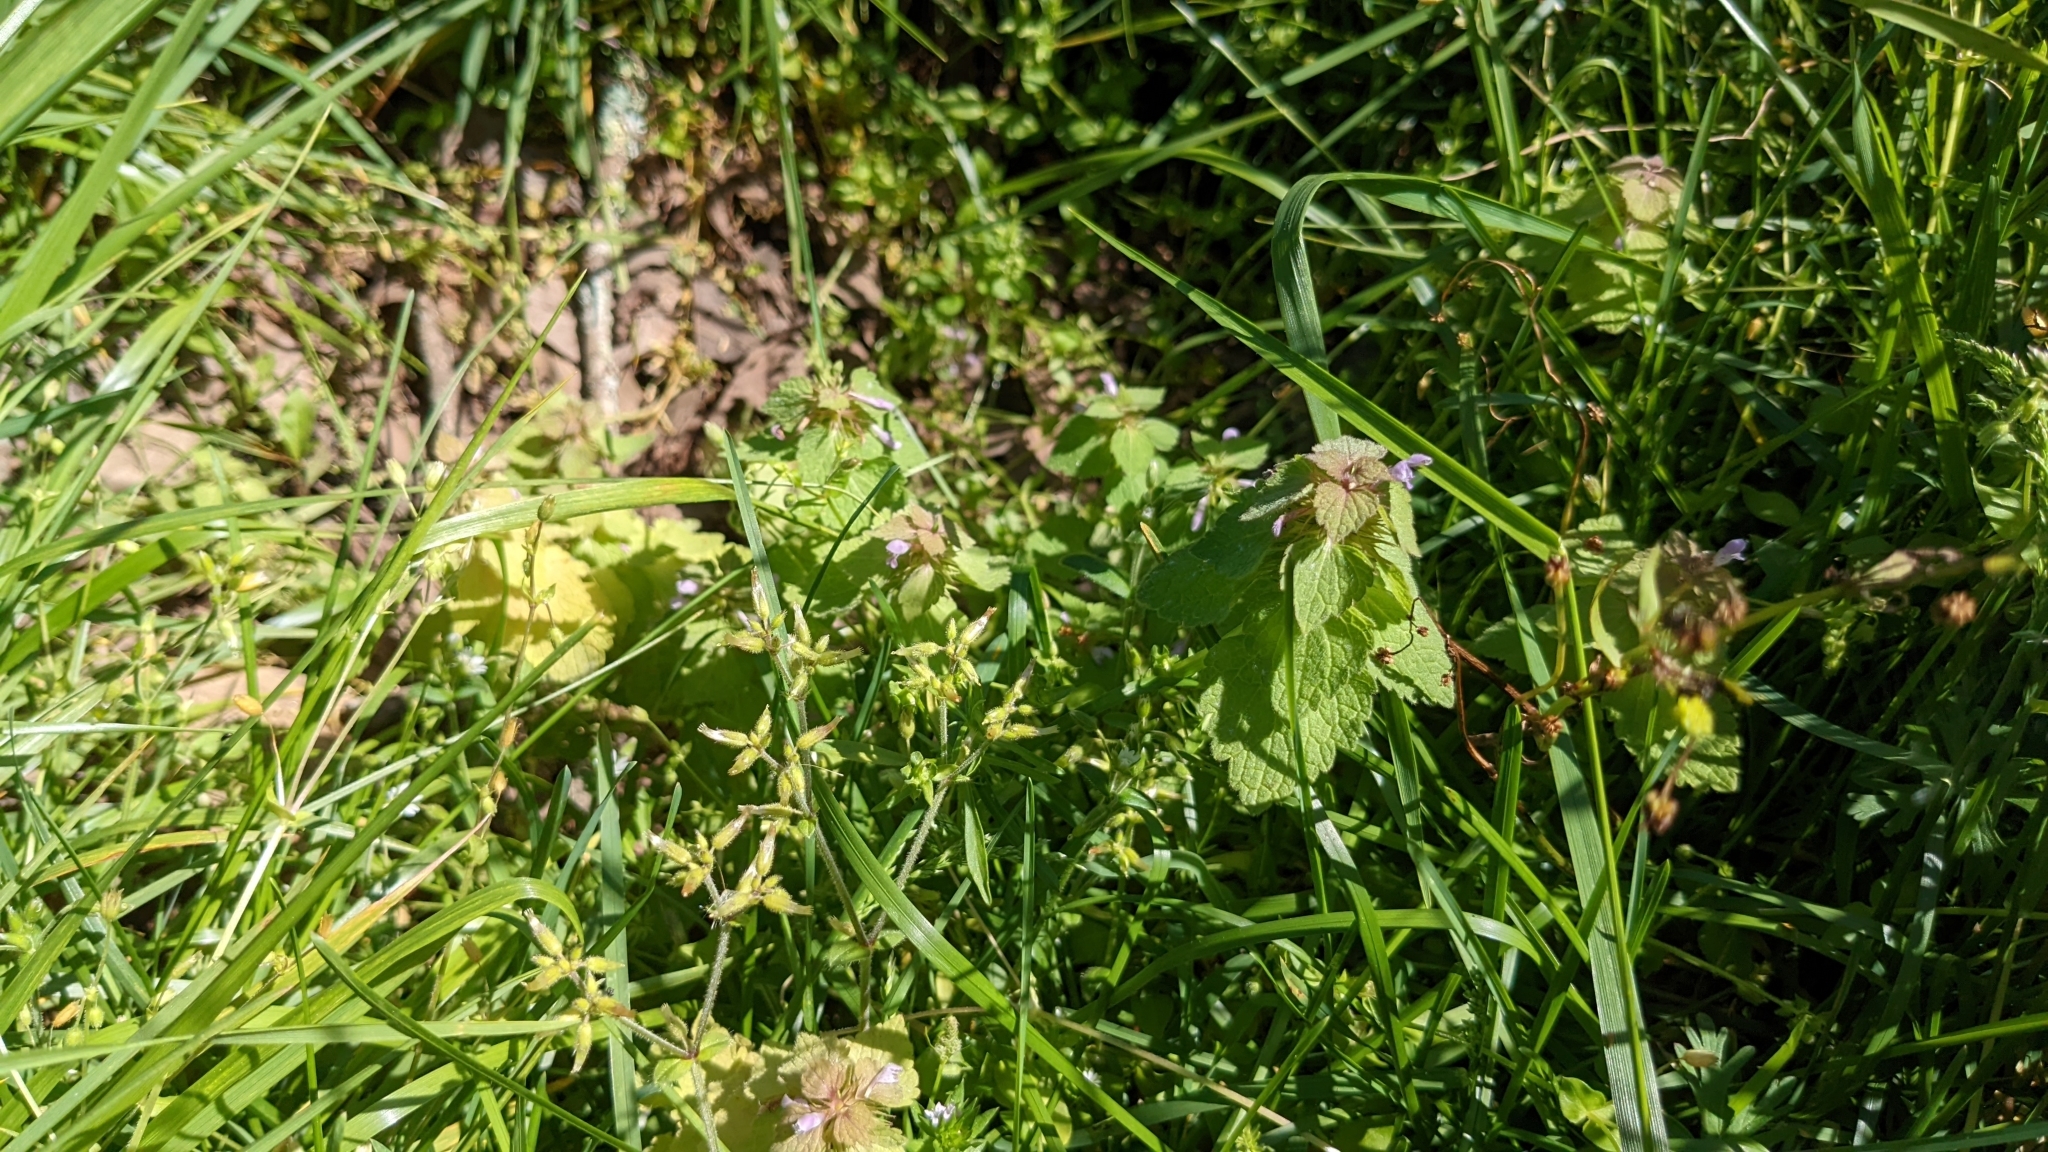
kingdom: Plantae
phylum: Tracheophyta
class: Magnoliopsida
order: Lamiales
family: Lamiaceae
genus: Lamium
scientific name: Lamium purpureum
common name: Red dead-nettle
